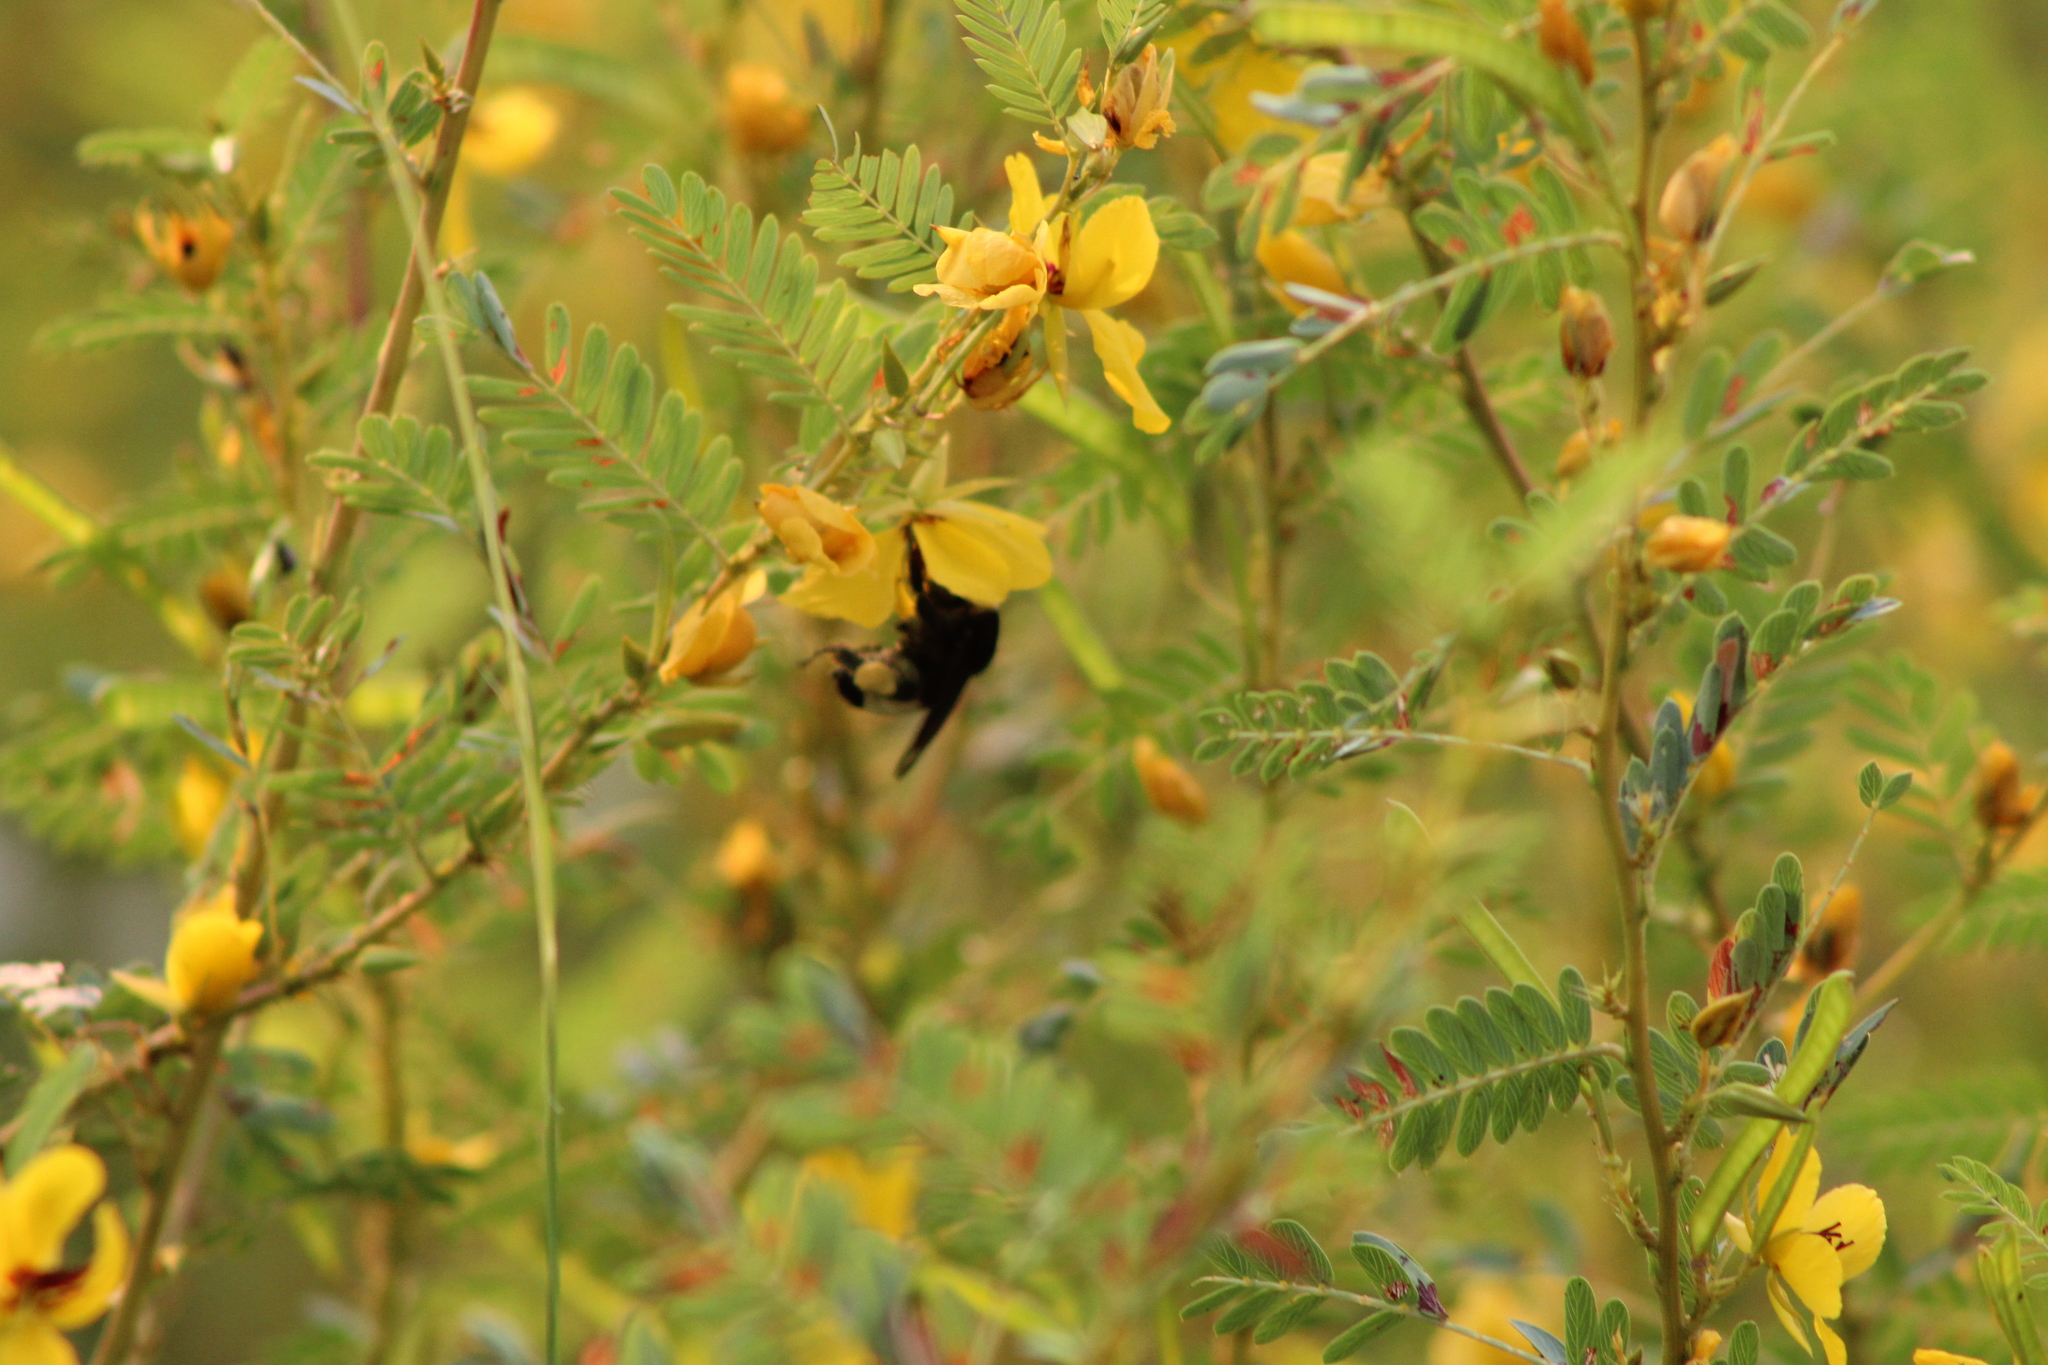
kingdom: Animalia
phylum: Arthropoda
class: Insecta
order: Hymenoptera
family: Apidae
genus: Bombus
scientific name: Bombus pensylvanicus
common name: Bumble bee
